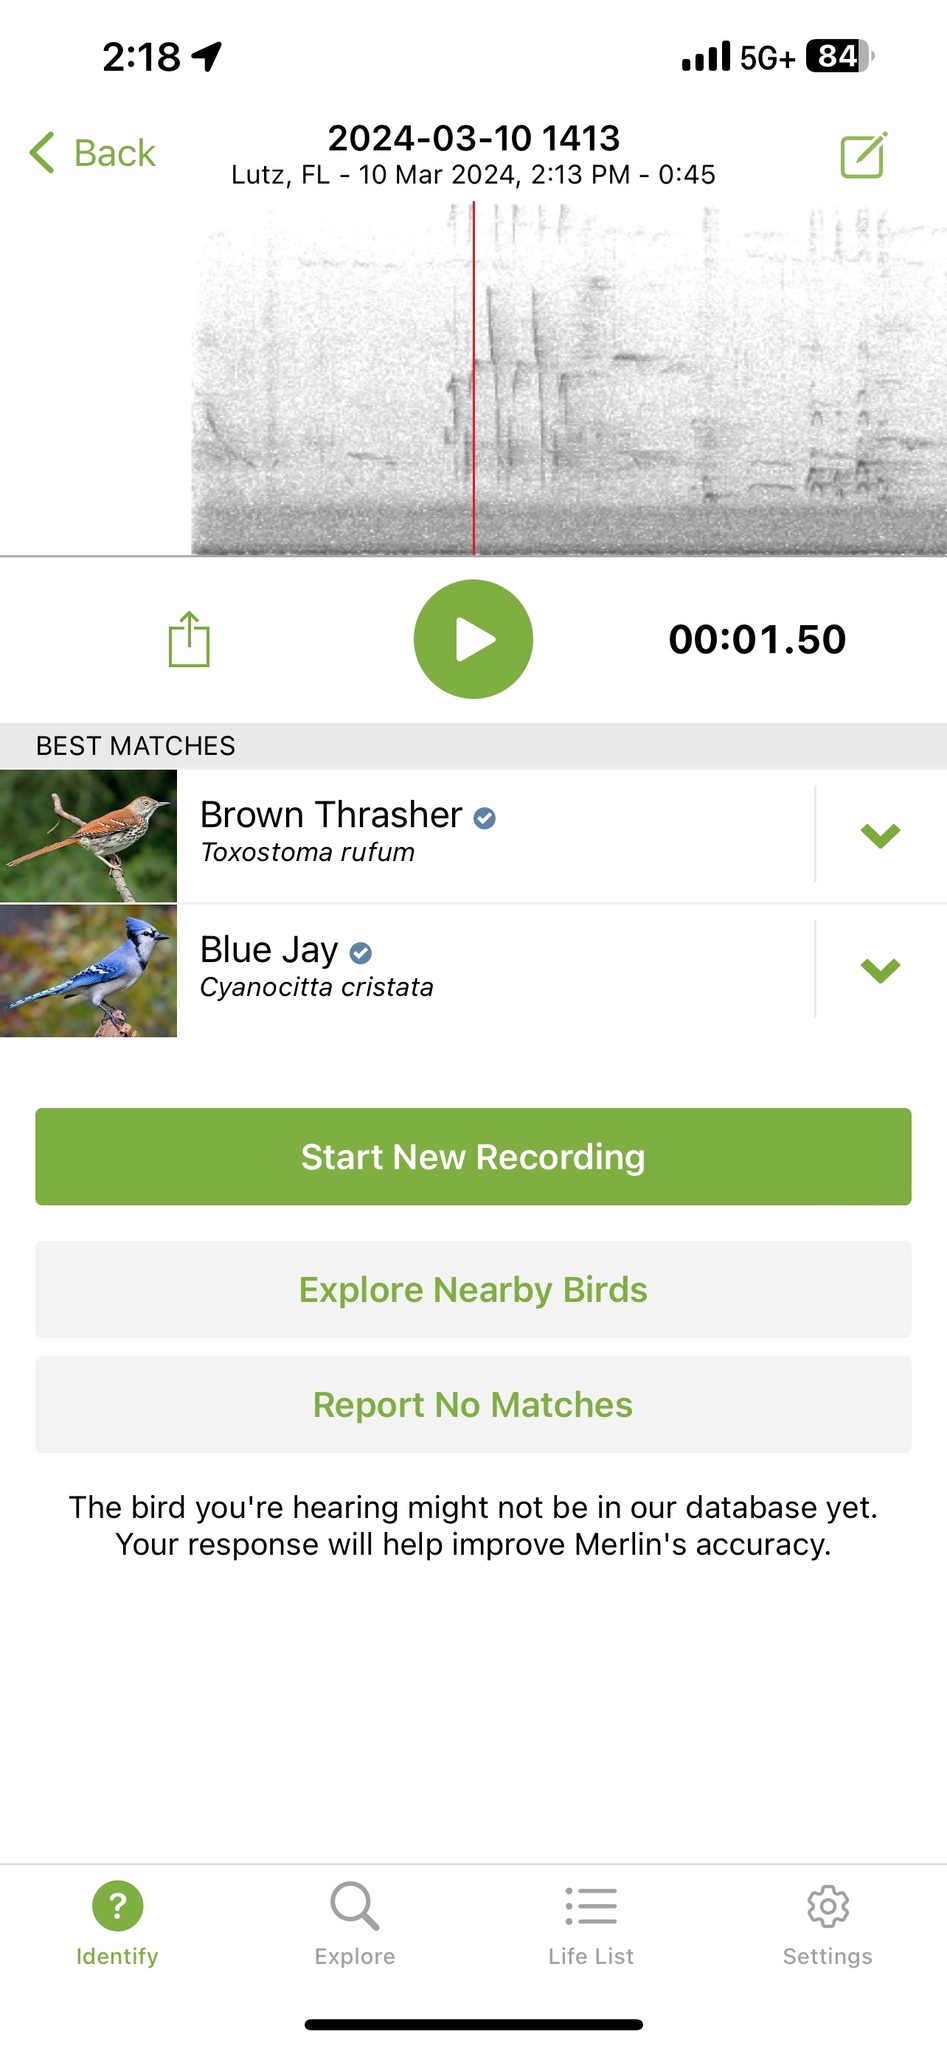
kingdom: Animalia
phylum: Chordata
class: Aves
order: Passeriformes
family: Mimidae
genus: Toxostoma
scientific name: Toxostoma rufum
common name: Brown thrasher
